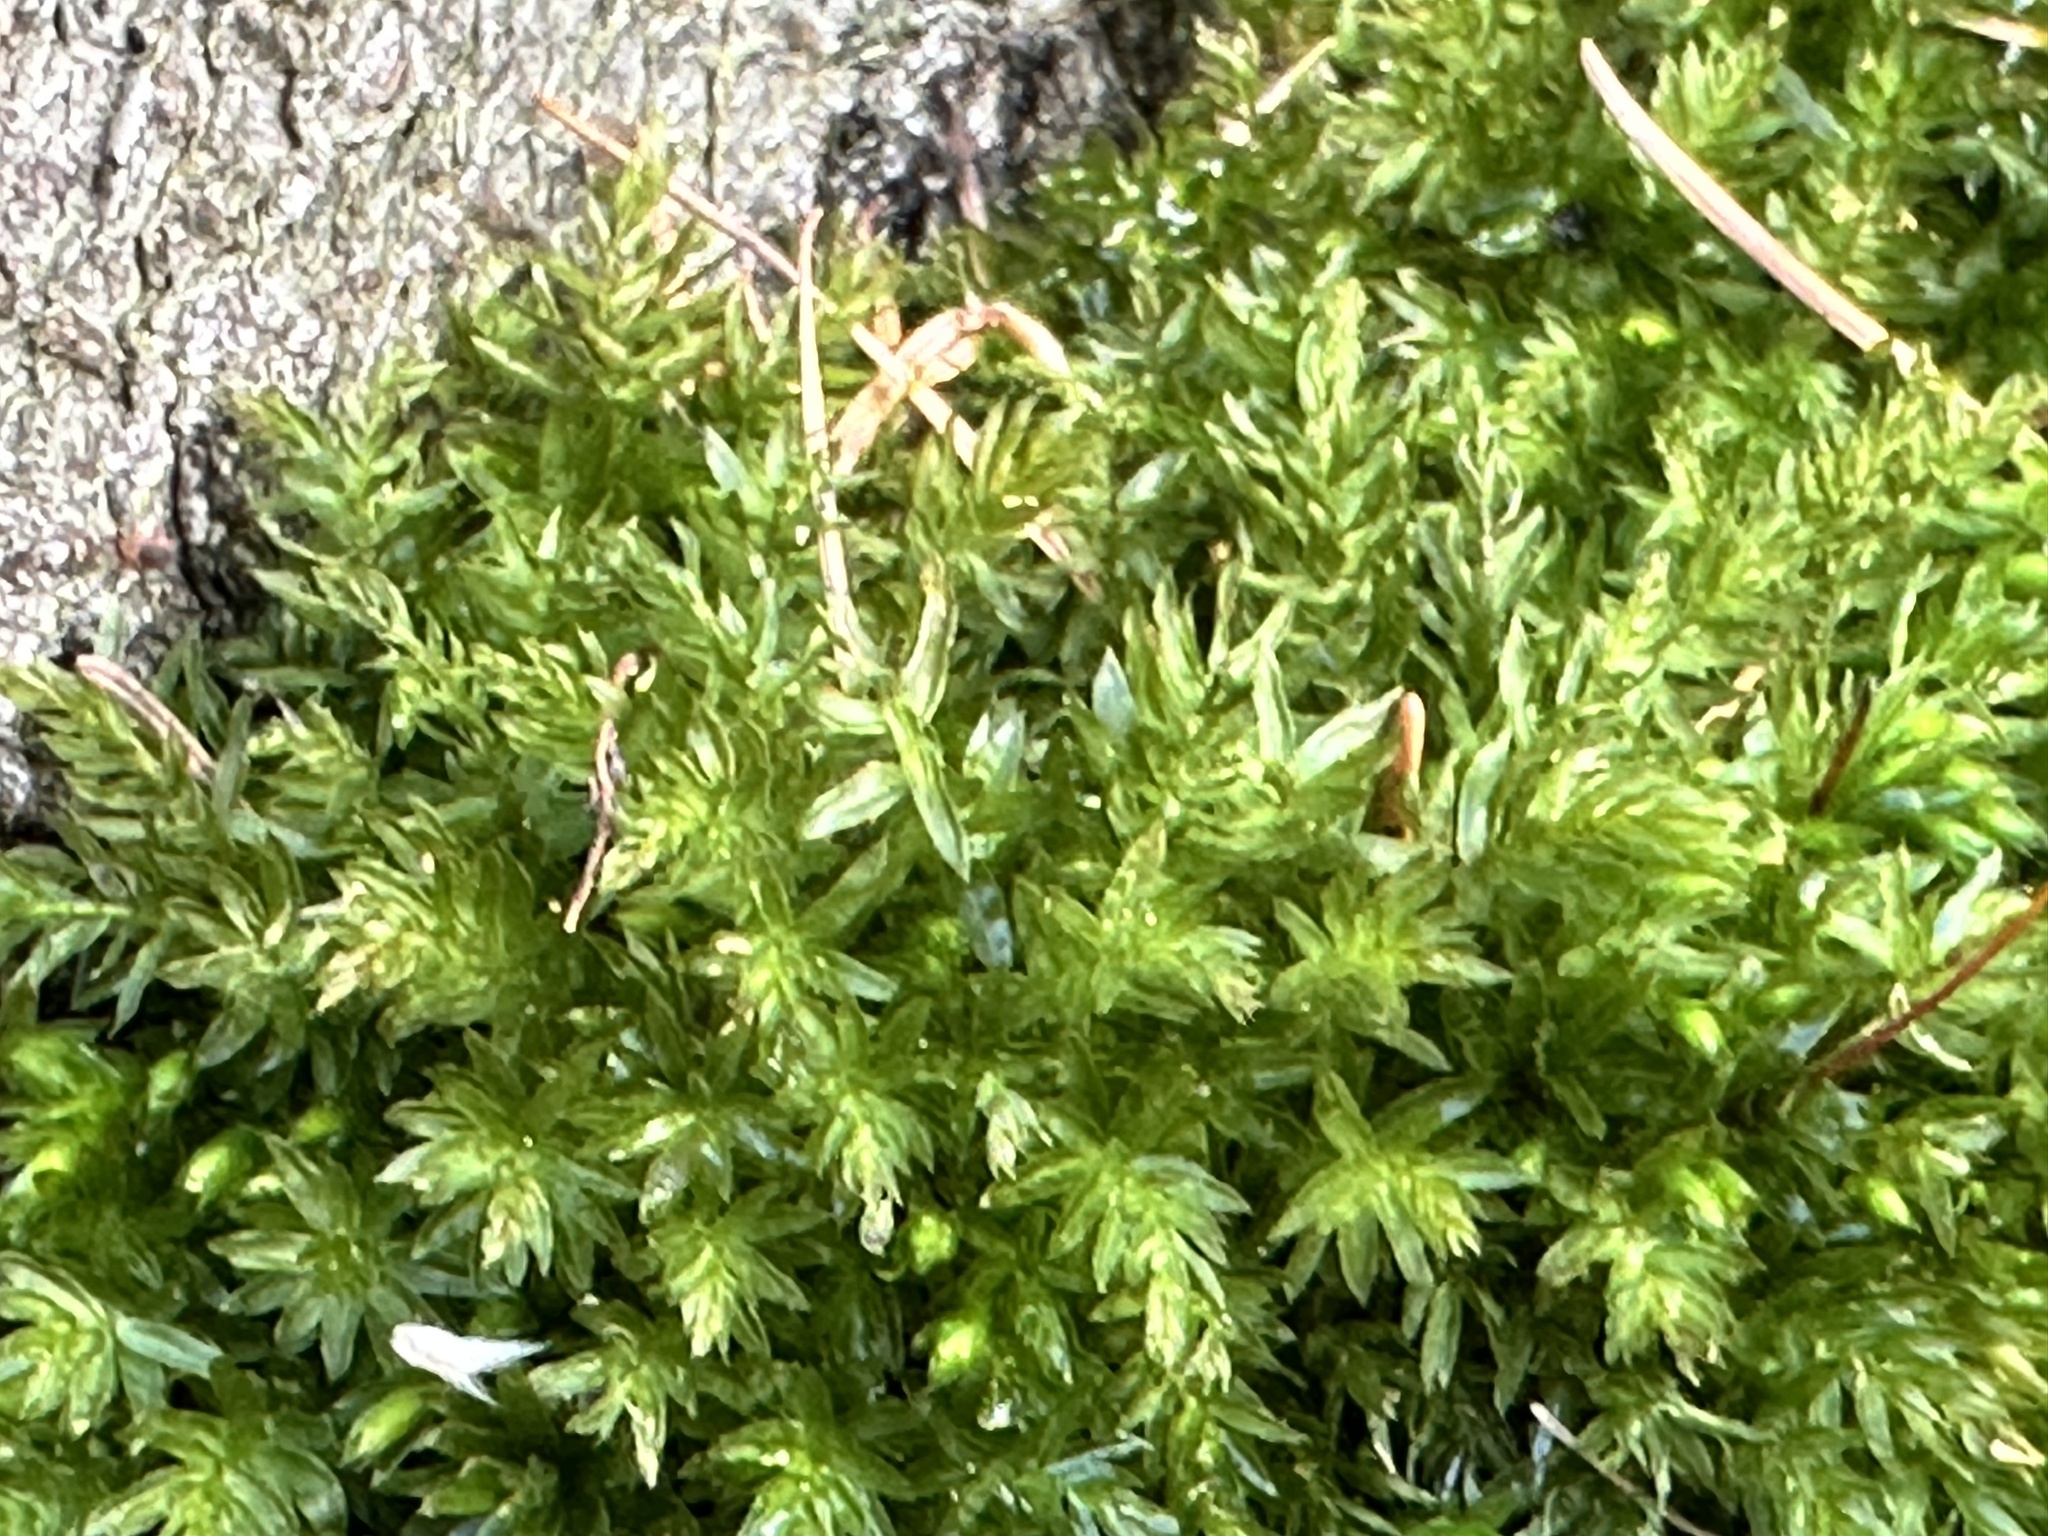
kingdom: Plantae
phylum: Bryophyta
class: Bryopsida
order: Bryales
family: Mniaceae
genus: Mnium
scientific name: Mnium hornum
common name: Swan's-neck leafy moss
